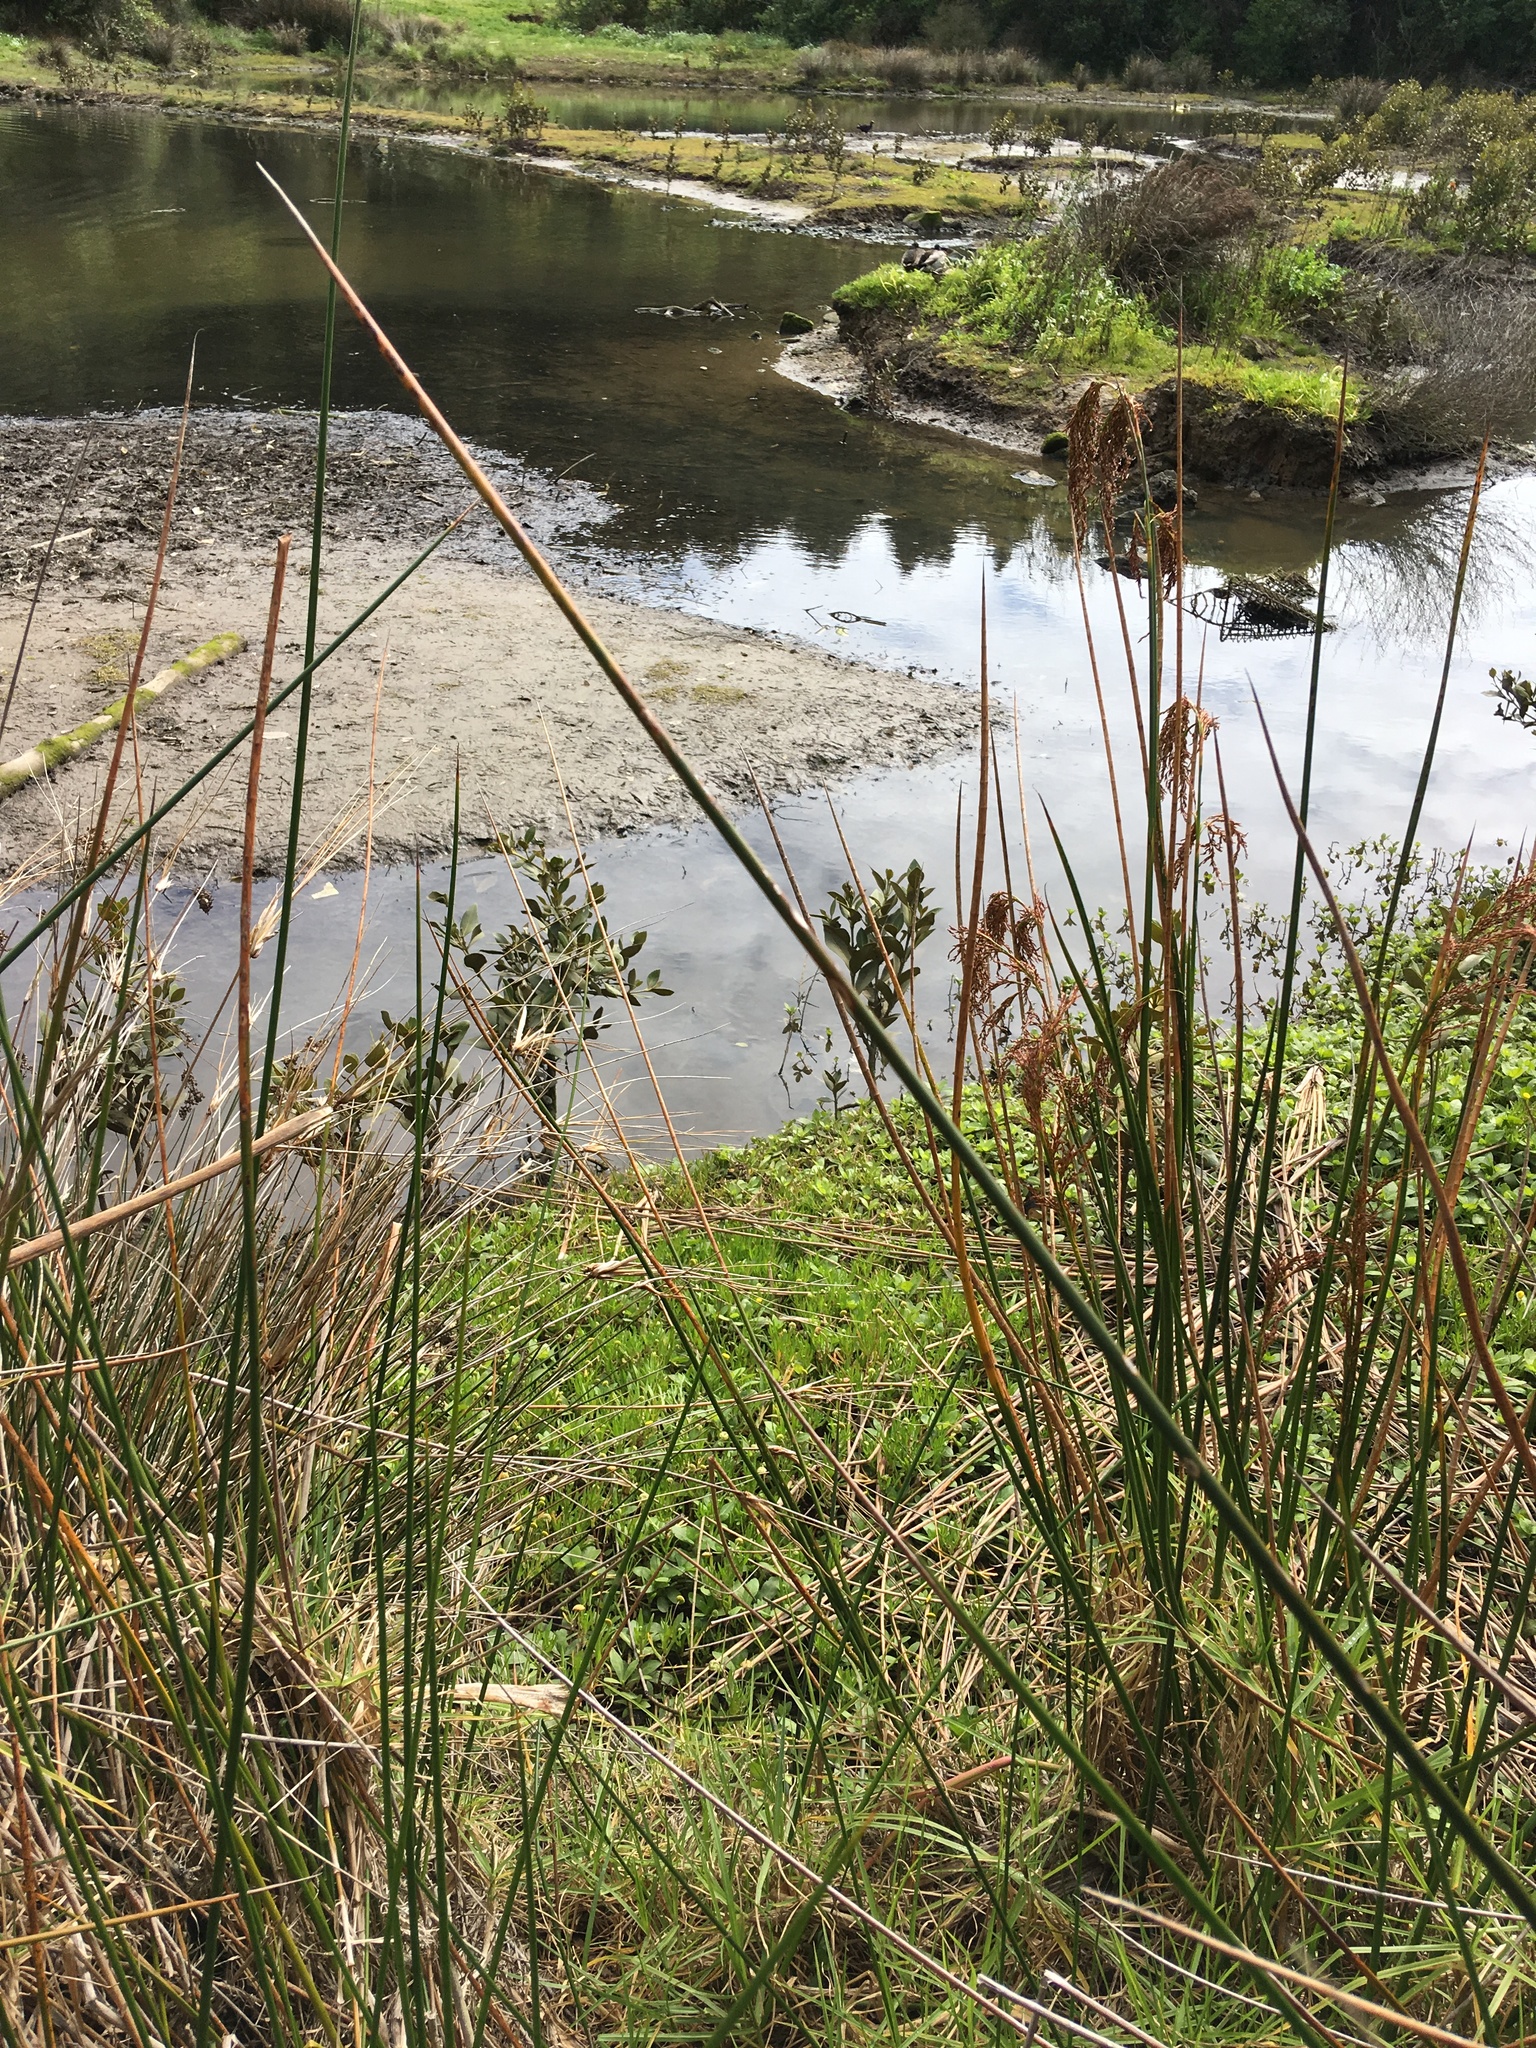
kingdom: Plantae
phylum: Tracheophyta
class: Magnoliopsida
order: Lamiales
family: Acanthaceae
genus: Avicennia
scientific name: Avicennia marina
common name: Gray mangrove
